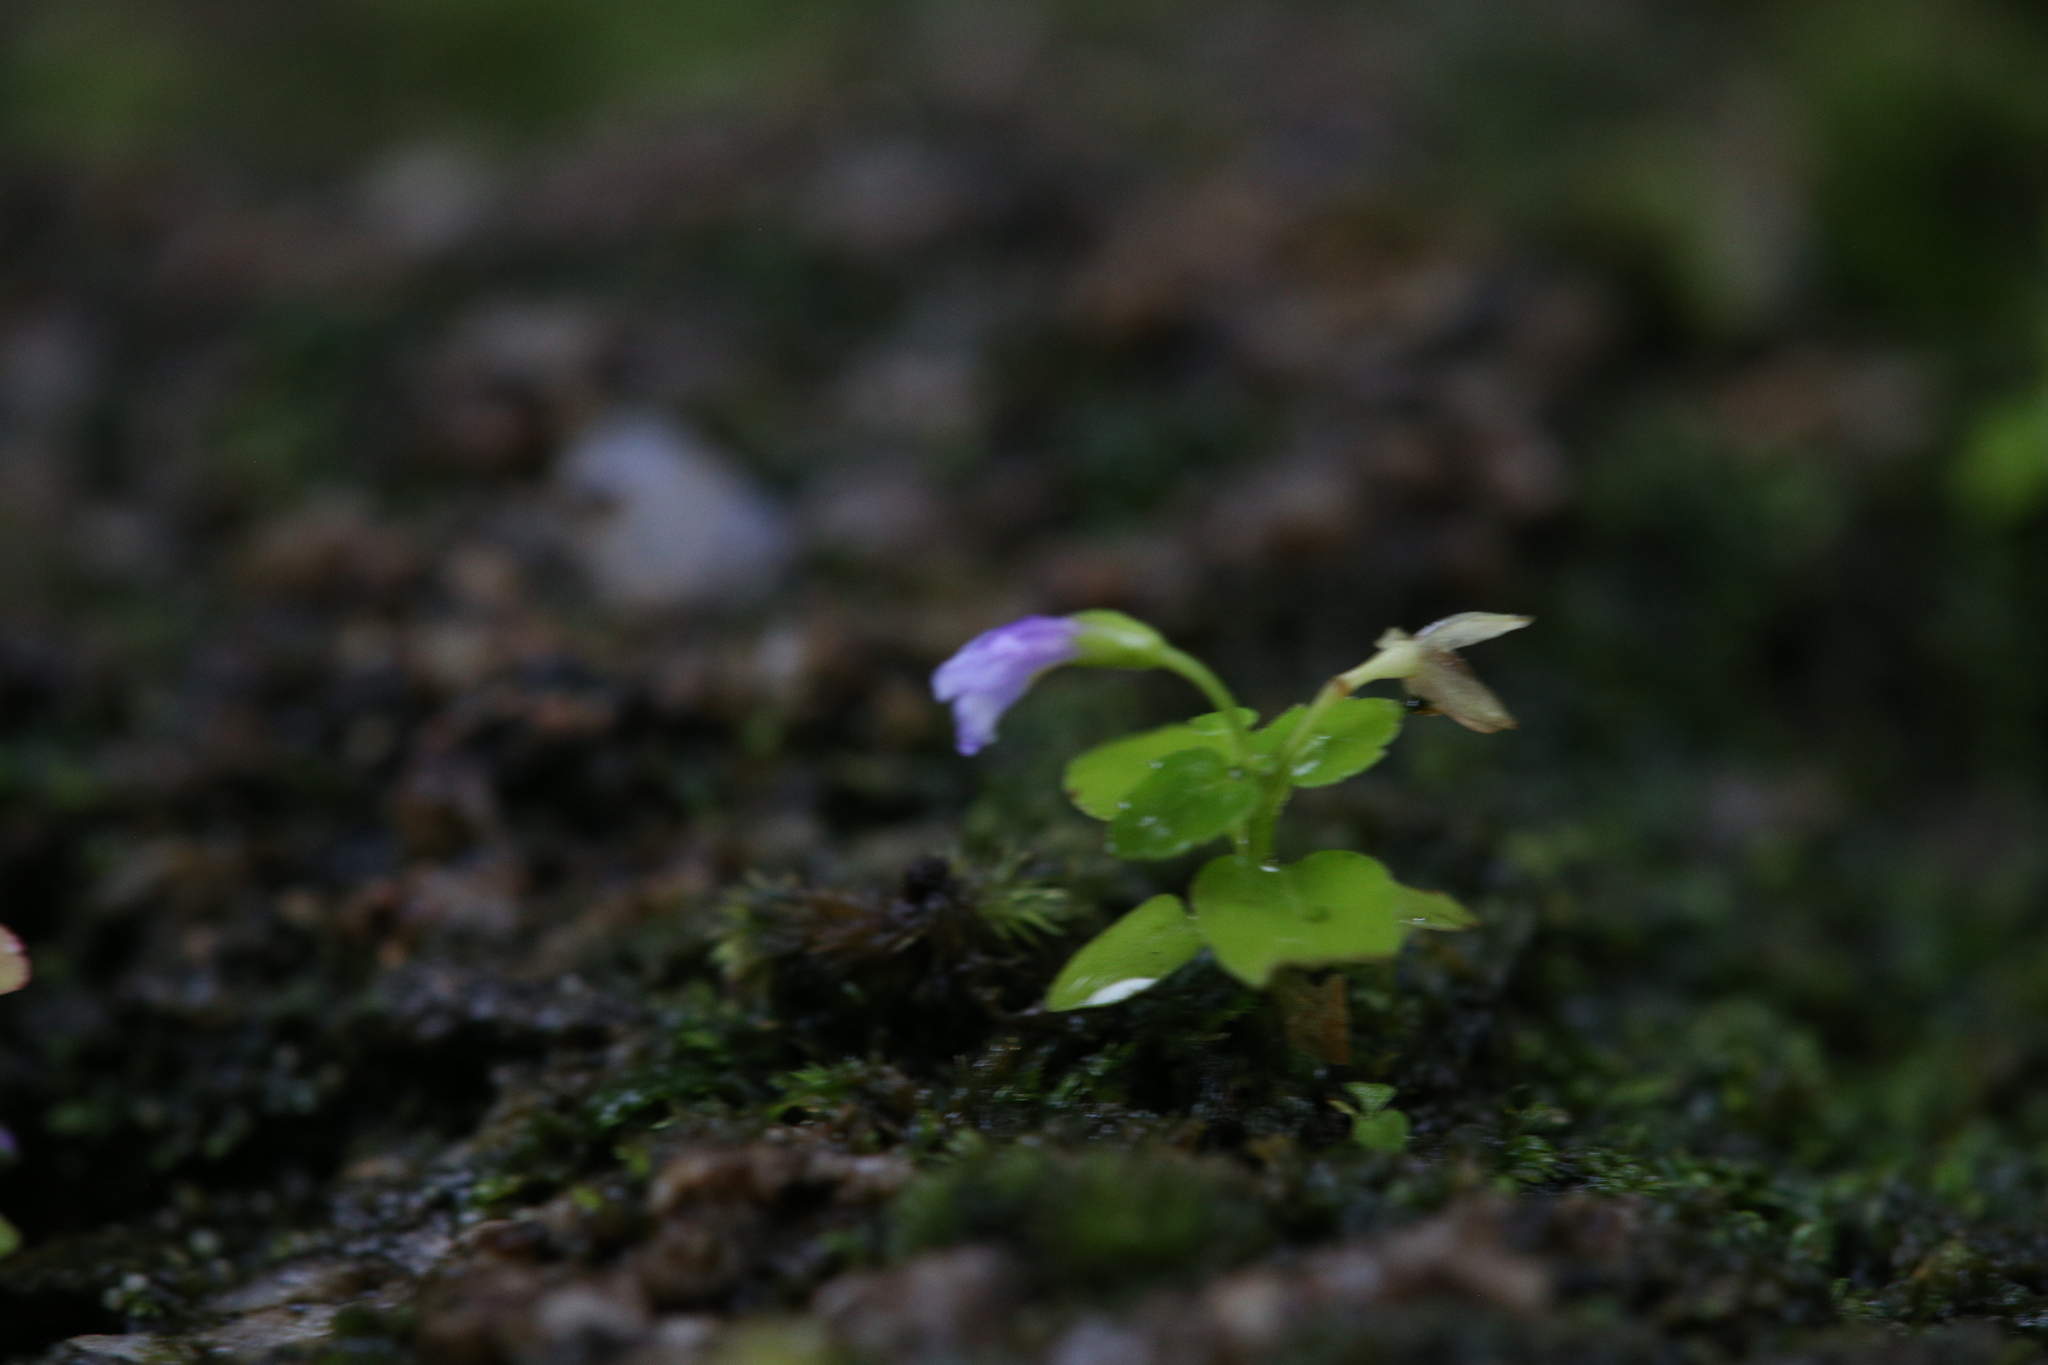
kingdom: Plantae
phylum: Tracheophyta
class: Magnoliopsida
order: Lamiales
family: Linderniaceae
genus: Torenia
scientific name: Torenia crustacea
